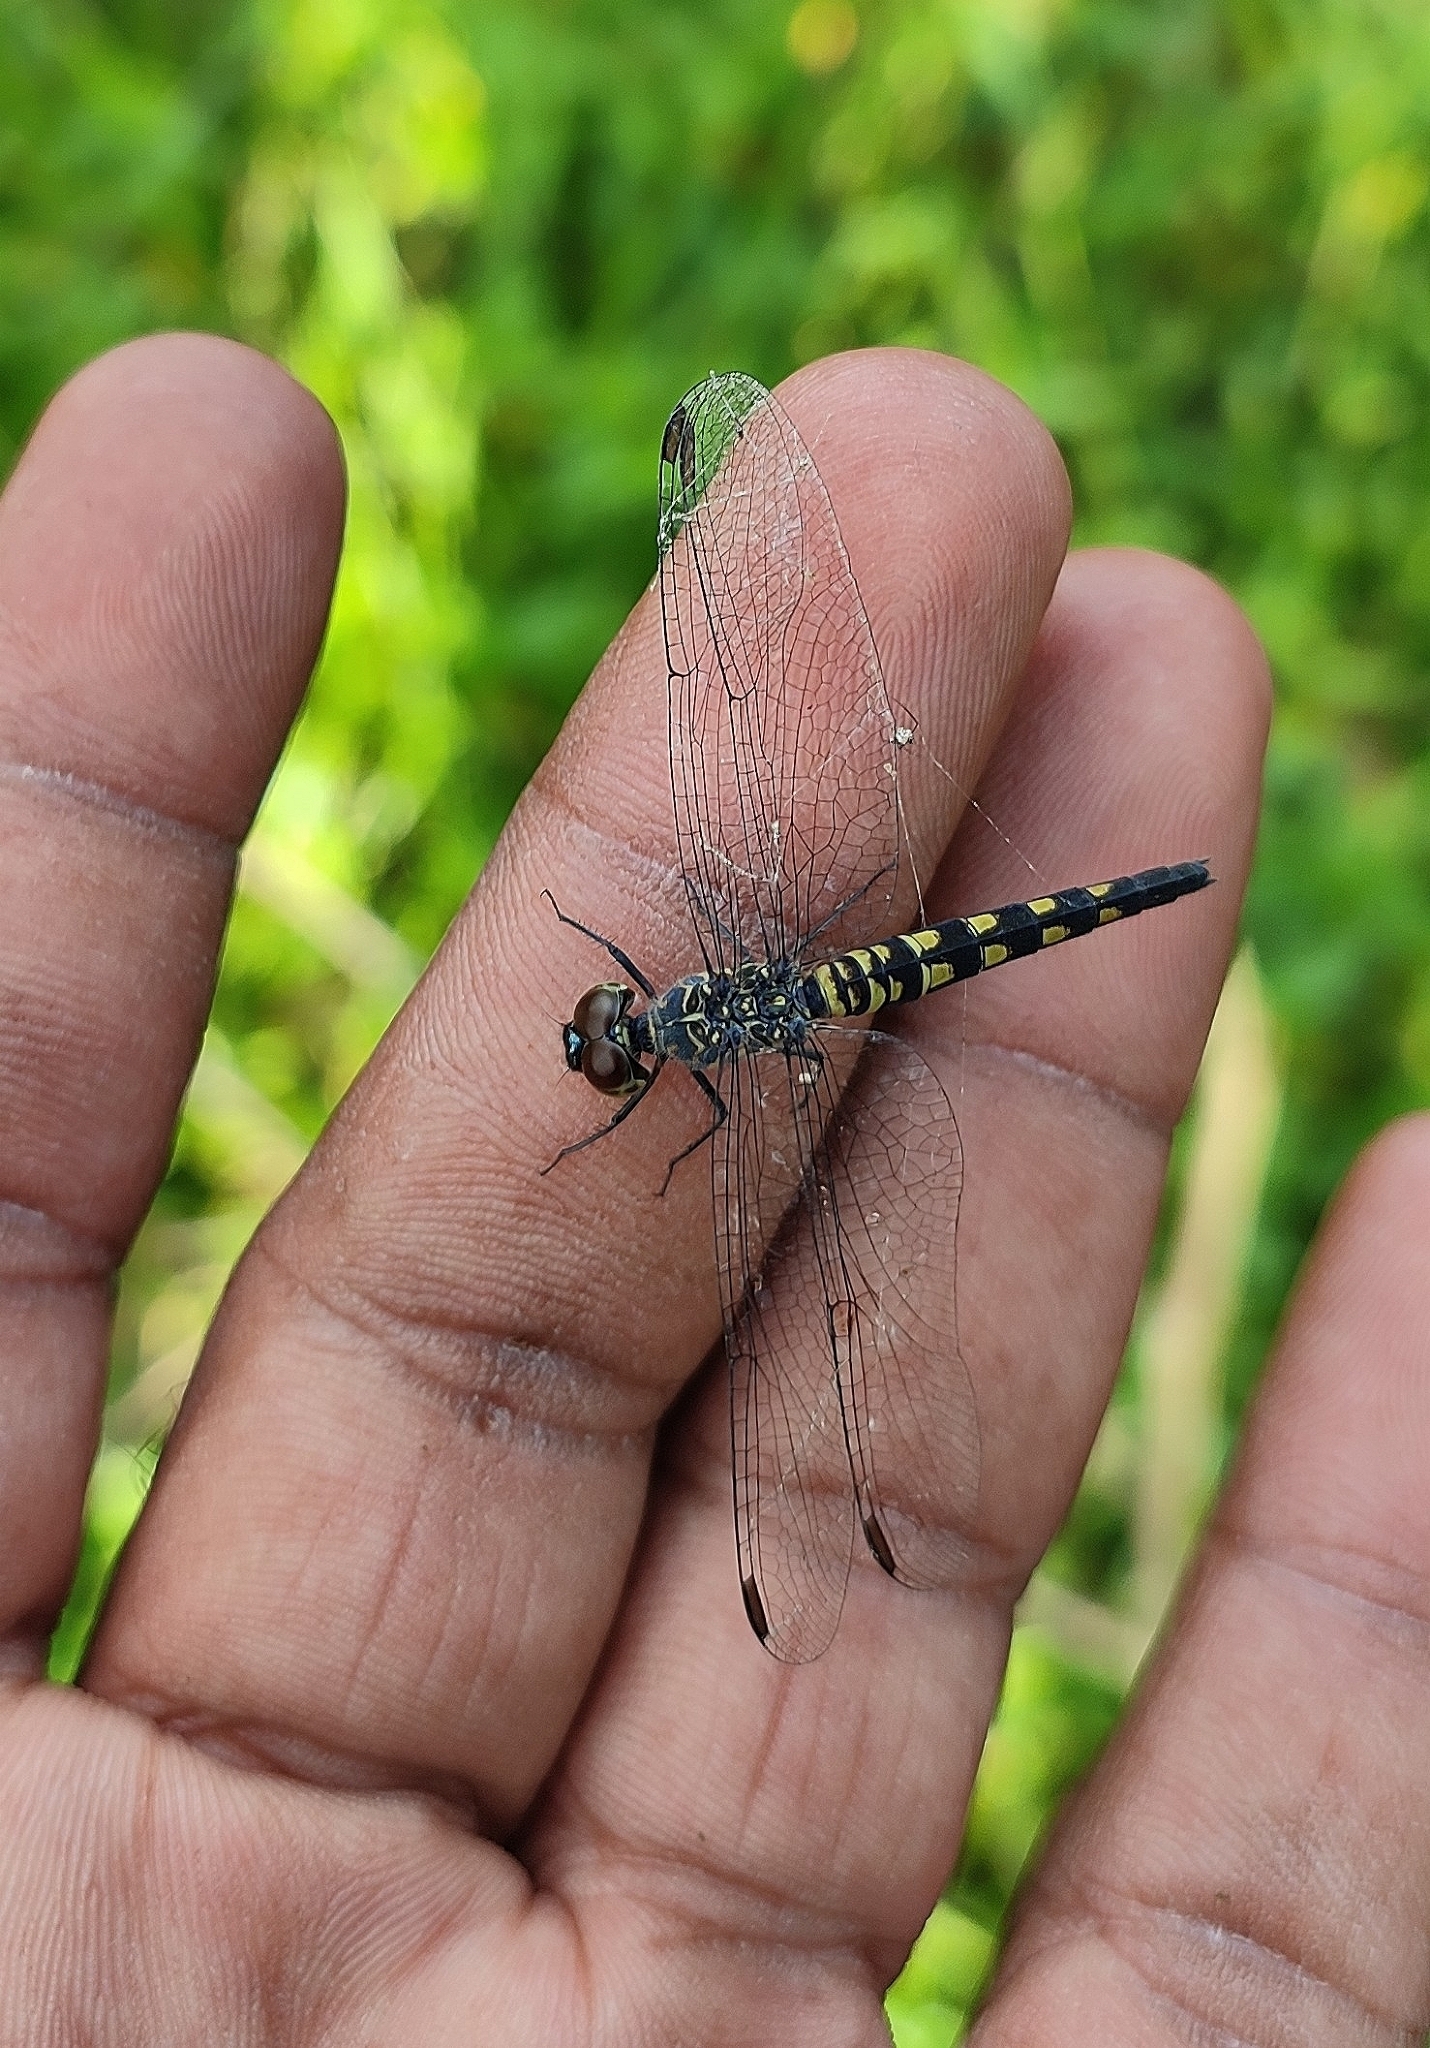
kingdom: Animalia
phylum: Arthropoda
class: Insecta
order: Odonata
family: Libellulidae
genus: Brachydiplax
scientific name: Brachydiplax sobrina
